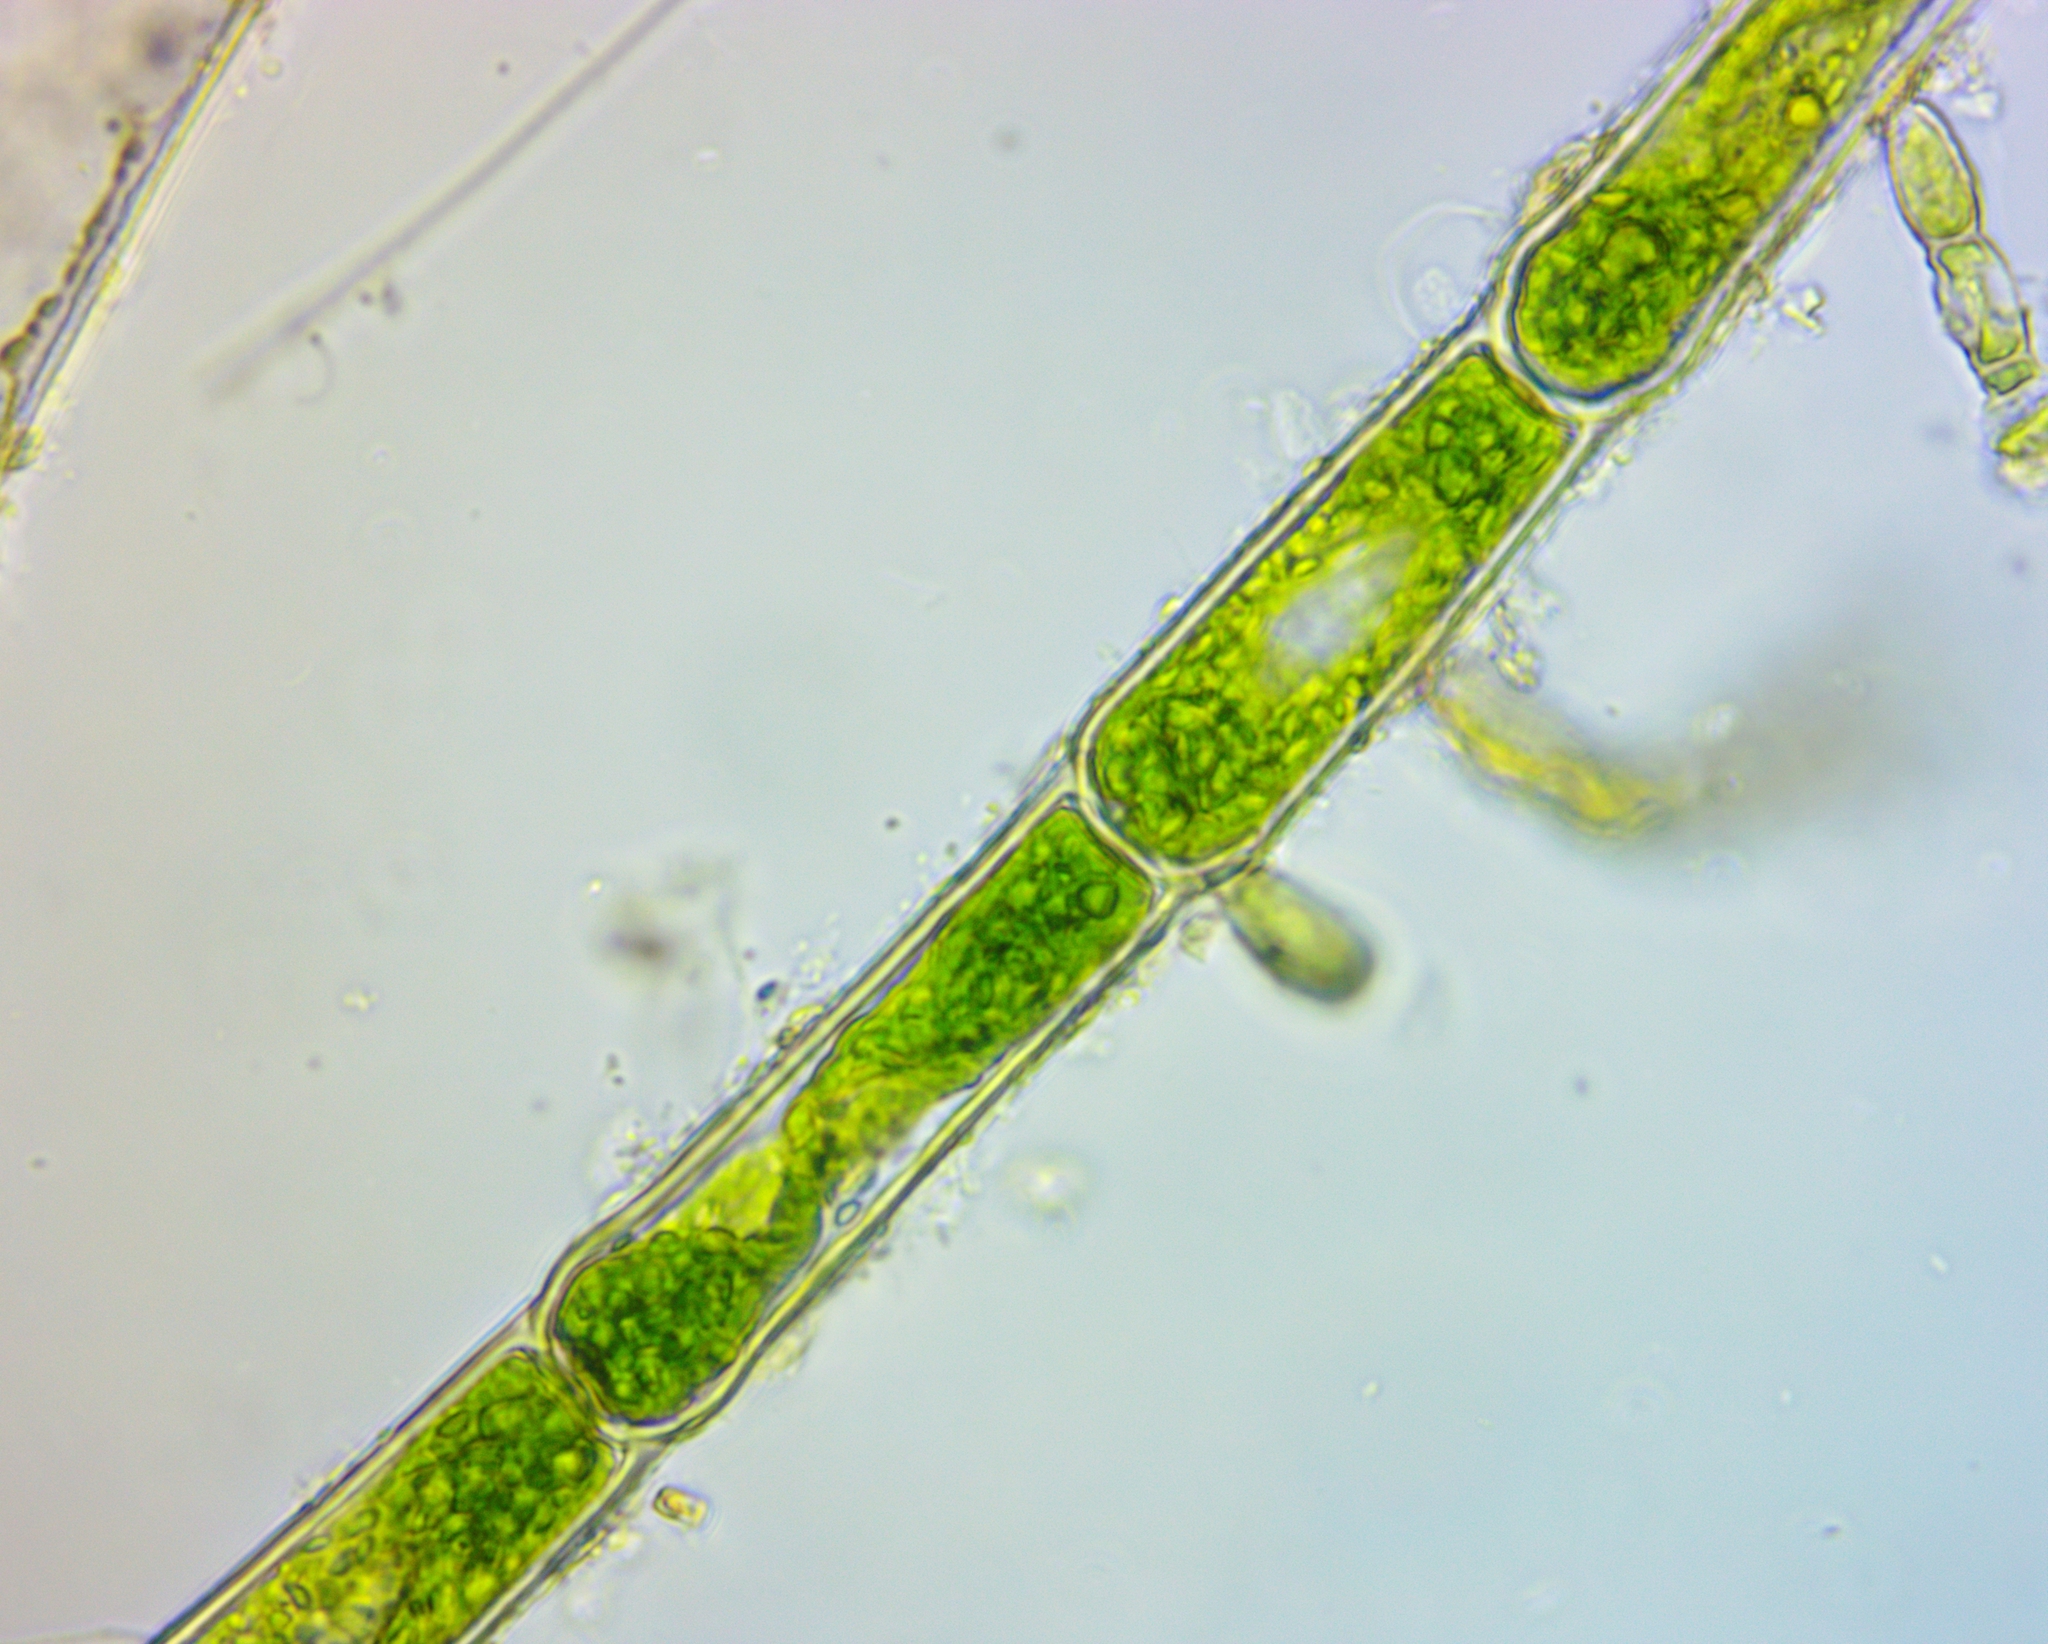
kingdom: Plantae
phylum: Chlorophyta
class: Chlorophyceae
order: Oedogoniales
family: Oedogoniaceae
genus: Oedogonium
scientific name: Oedogonium
